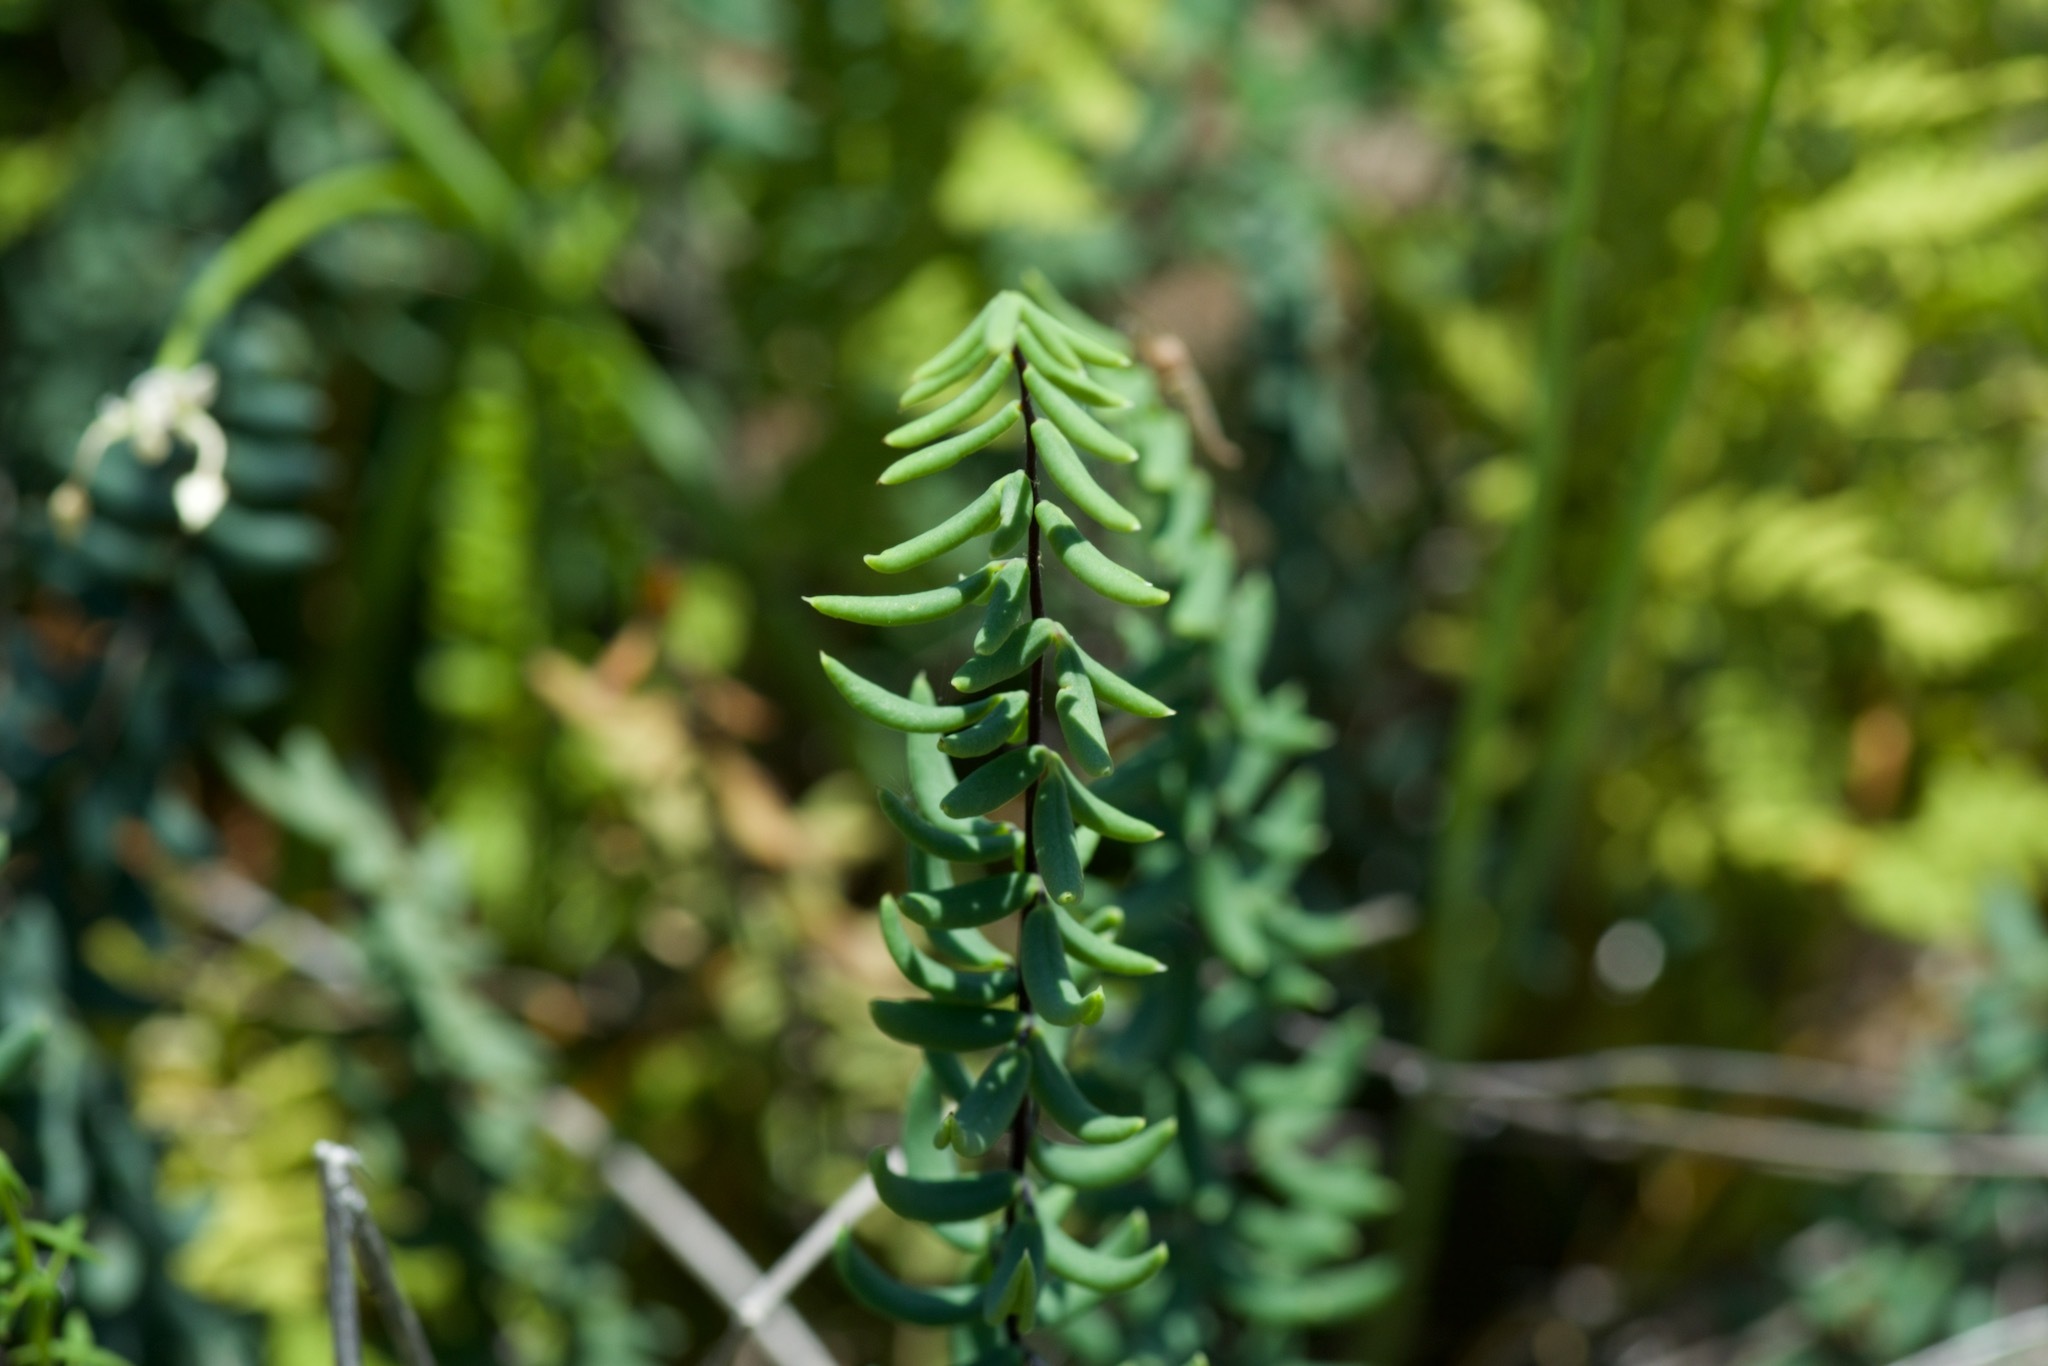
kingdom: Plantae
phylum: Tracheophyta
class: Polypodiopsida
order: Polypodiales
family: Pteridaceae
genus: Pellaea
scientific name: Pellaea wrightiana
